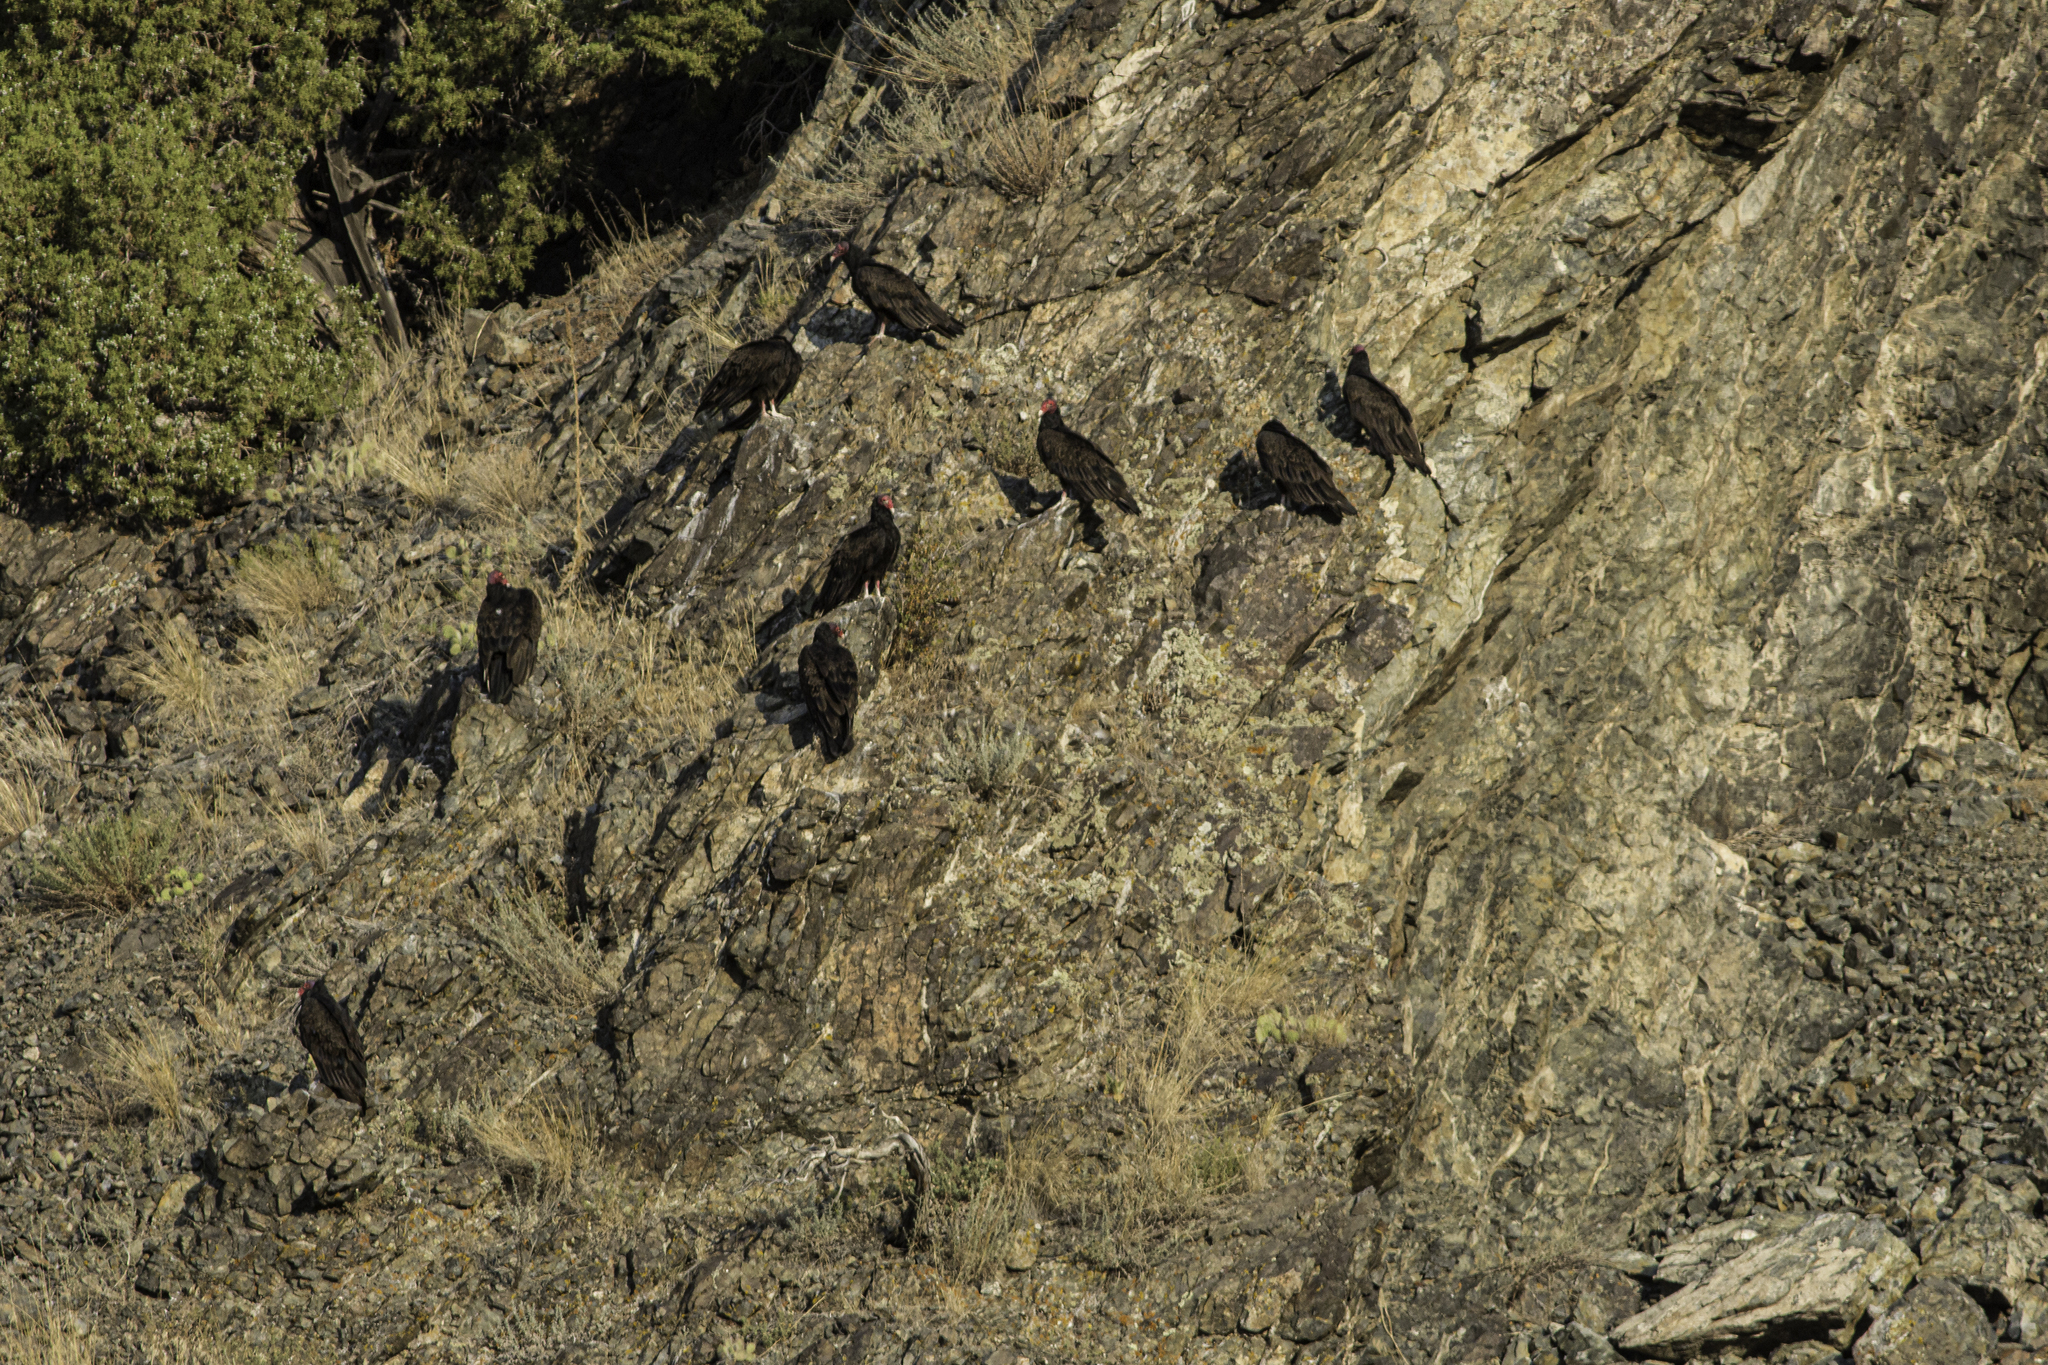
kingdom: Animalia
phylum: Chordata
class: Aves
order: Accipitriformes
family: Cathartidae
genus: Cathartes
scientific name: Cathartes aura
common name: Turkey vulture
